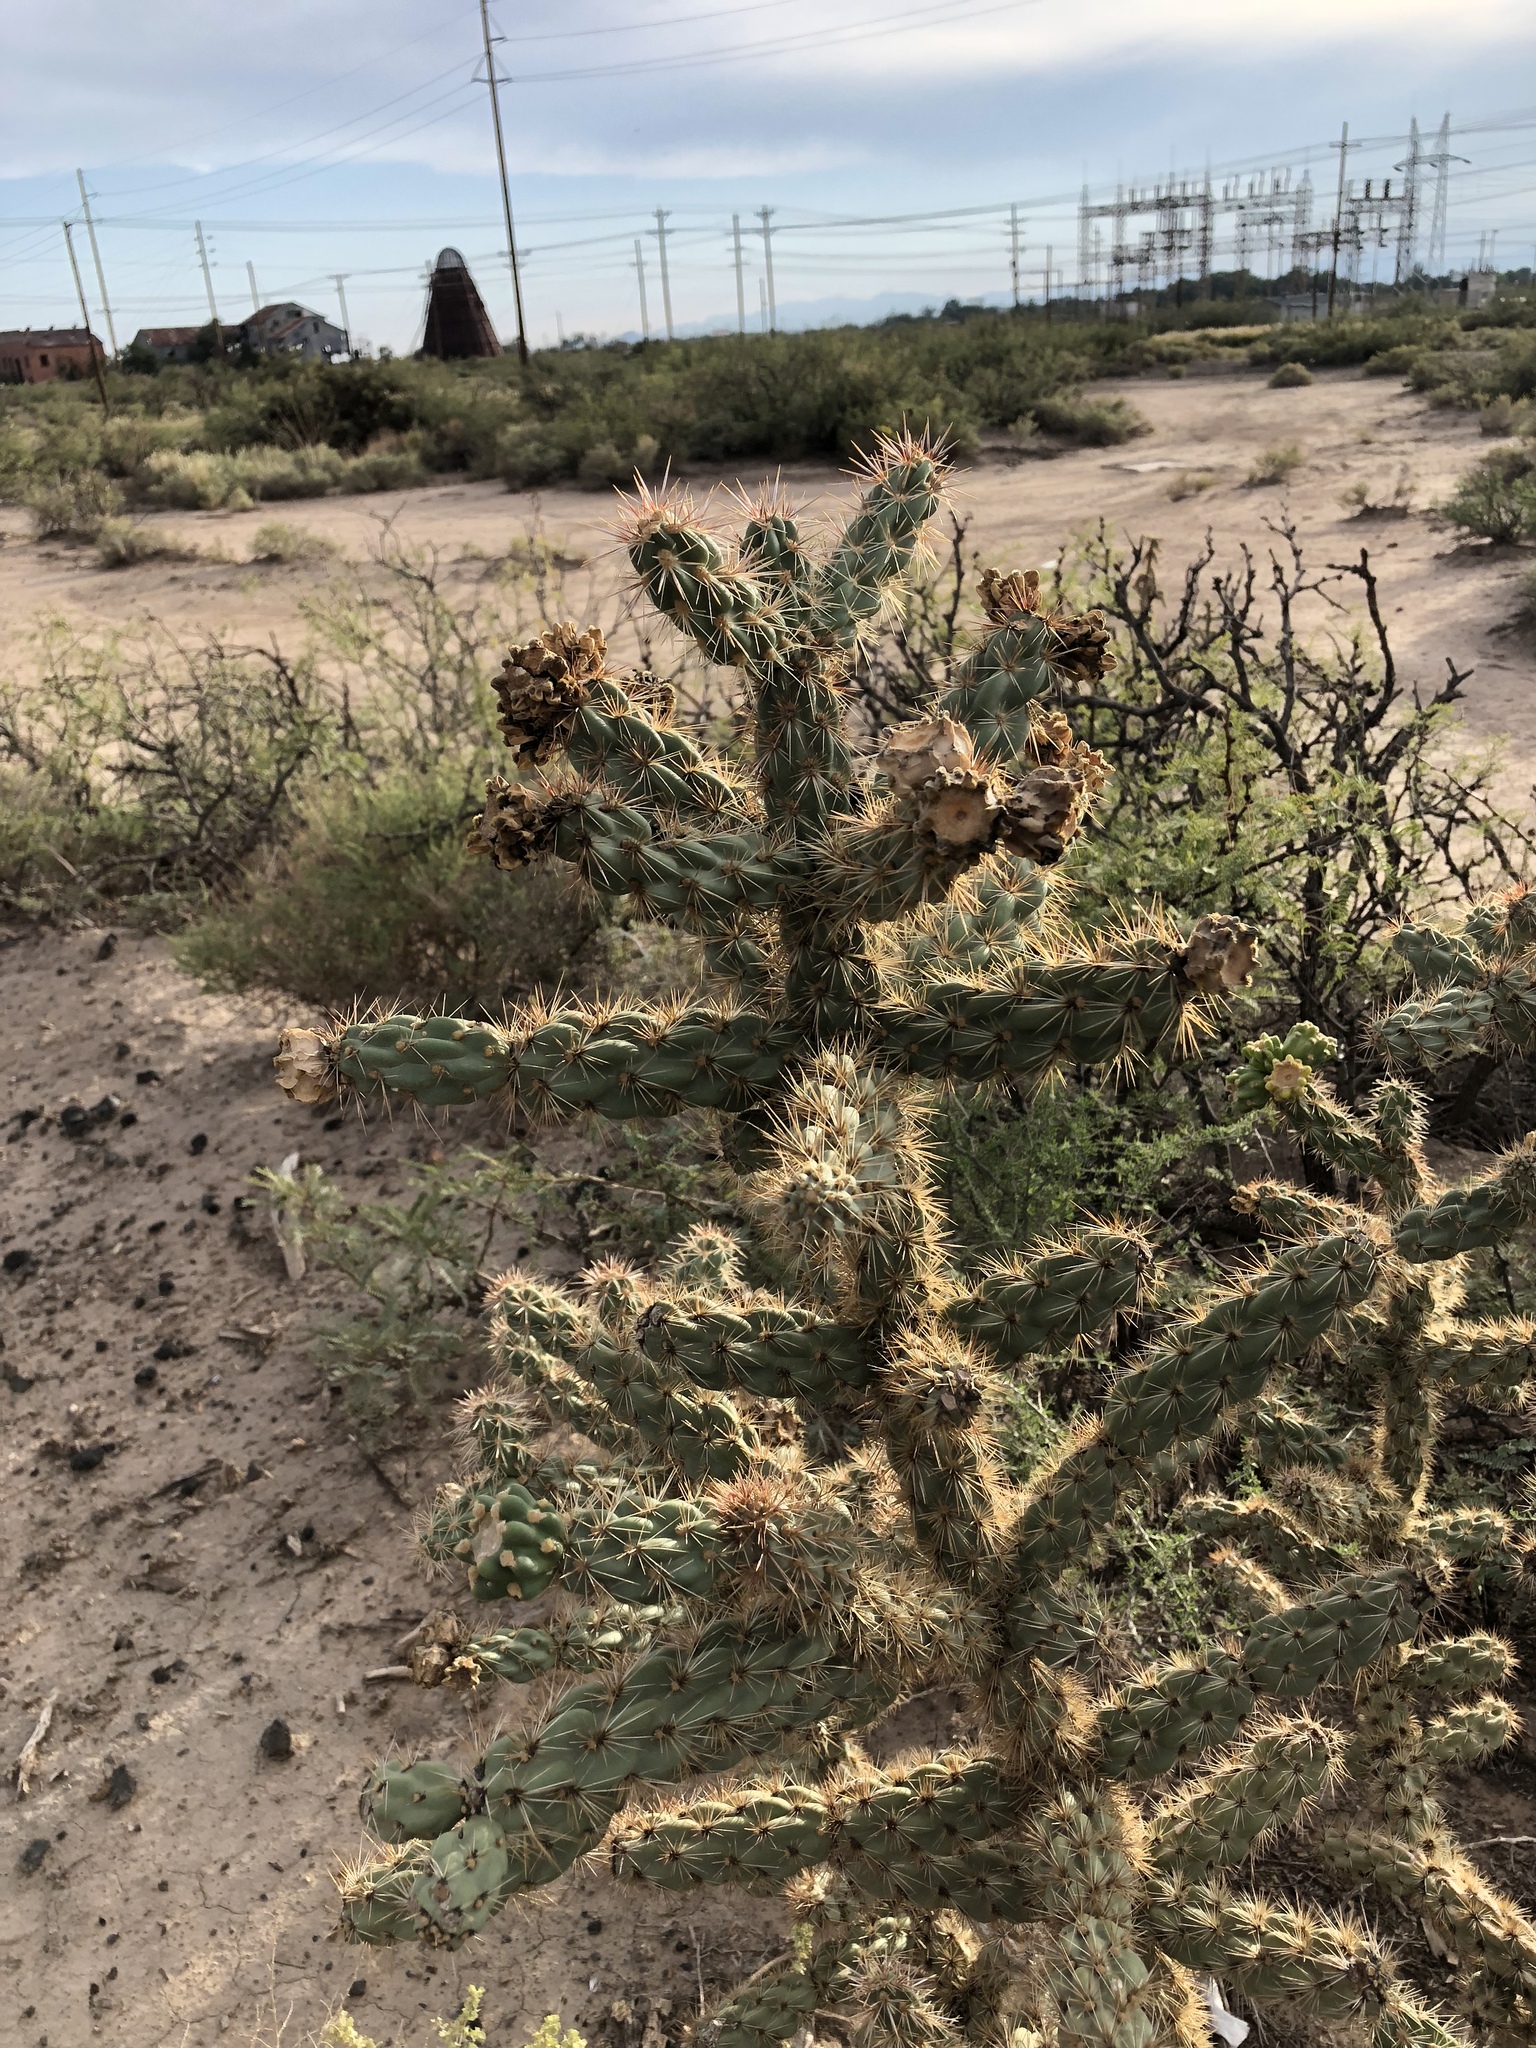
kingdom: Plantae
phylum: Tracheophyta
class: Magnoliopsida
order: Caryophyllales
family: Cactaceae
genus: Cylindropuntia
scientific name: Cylindropuntia imbricata
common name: Candelabrum cactus
